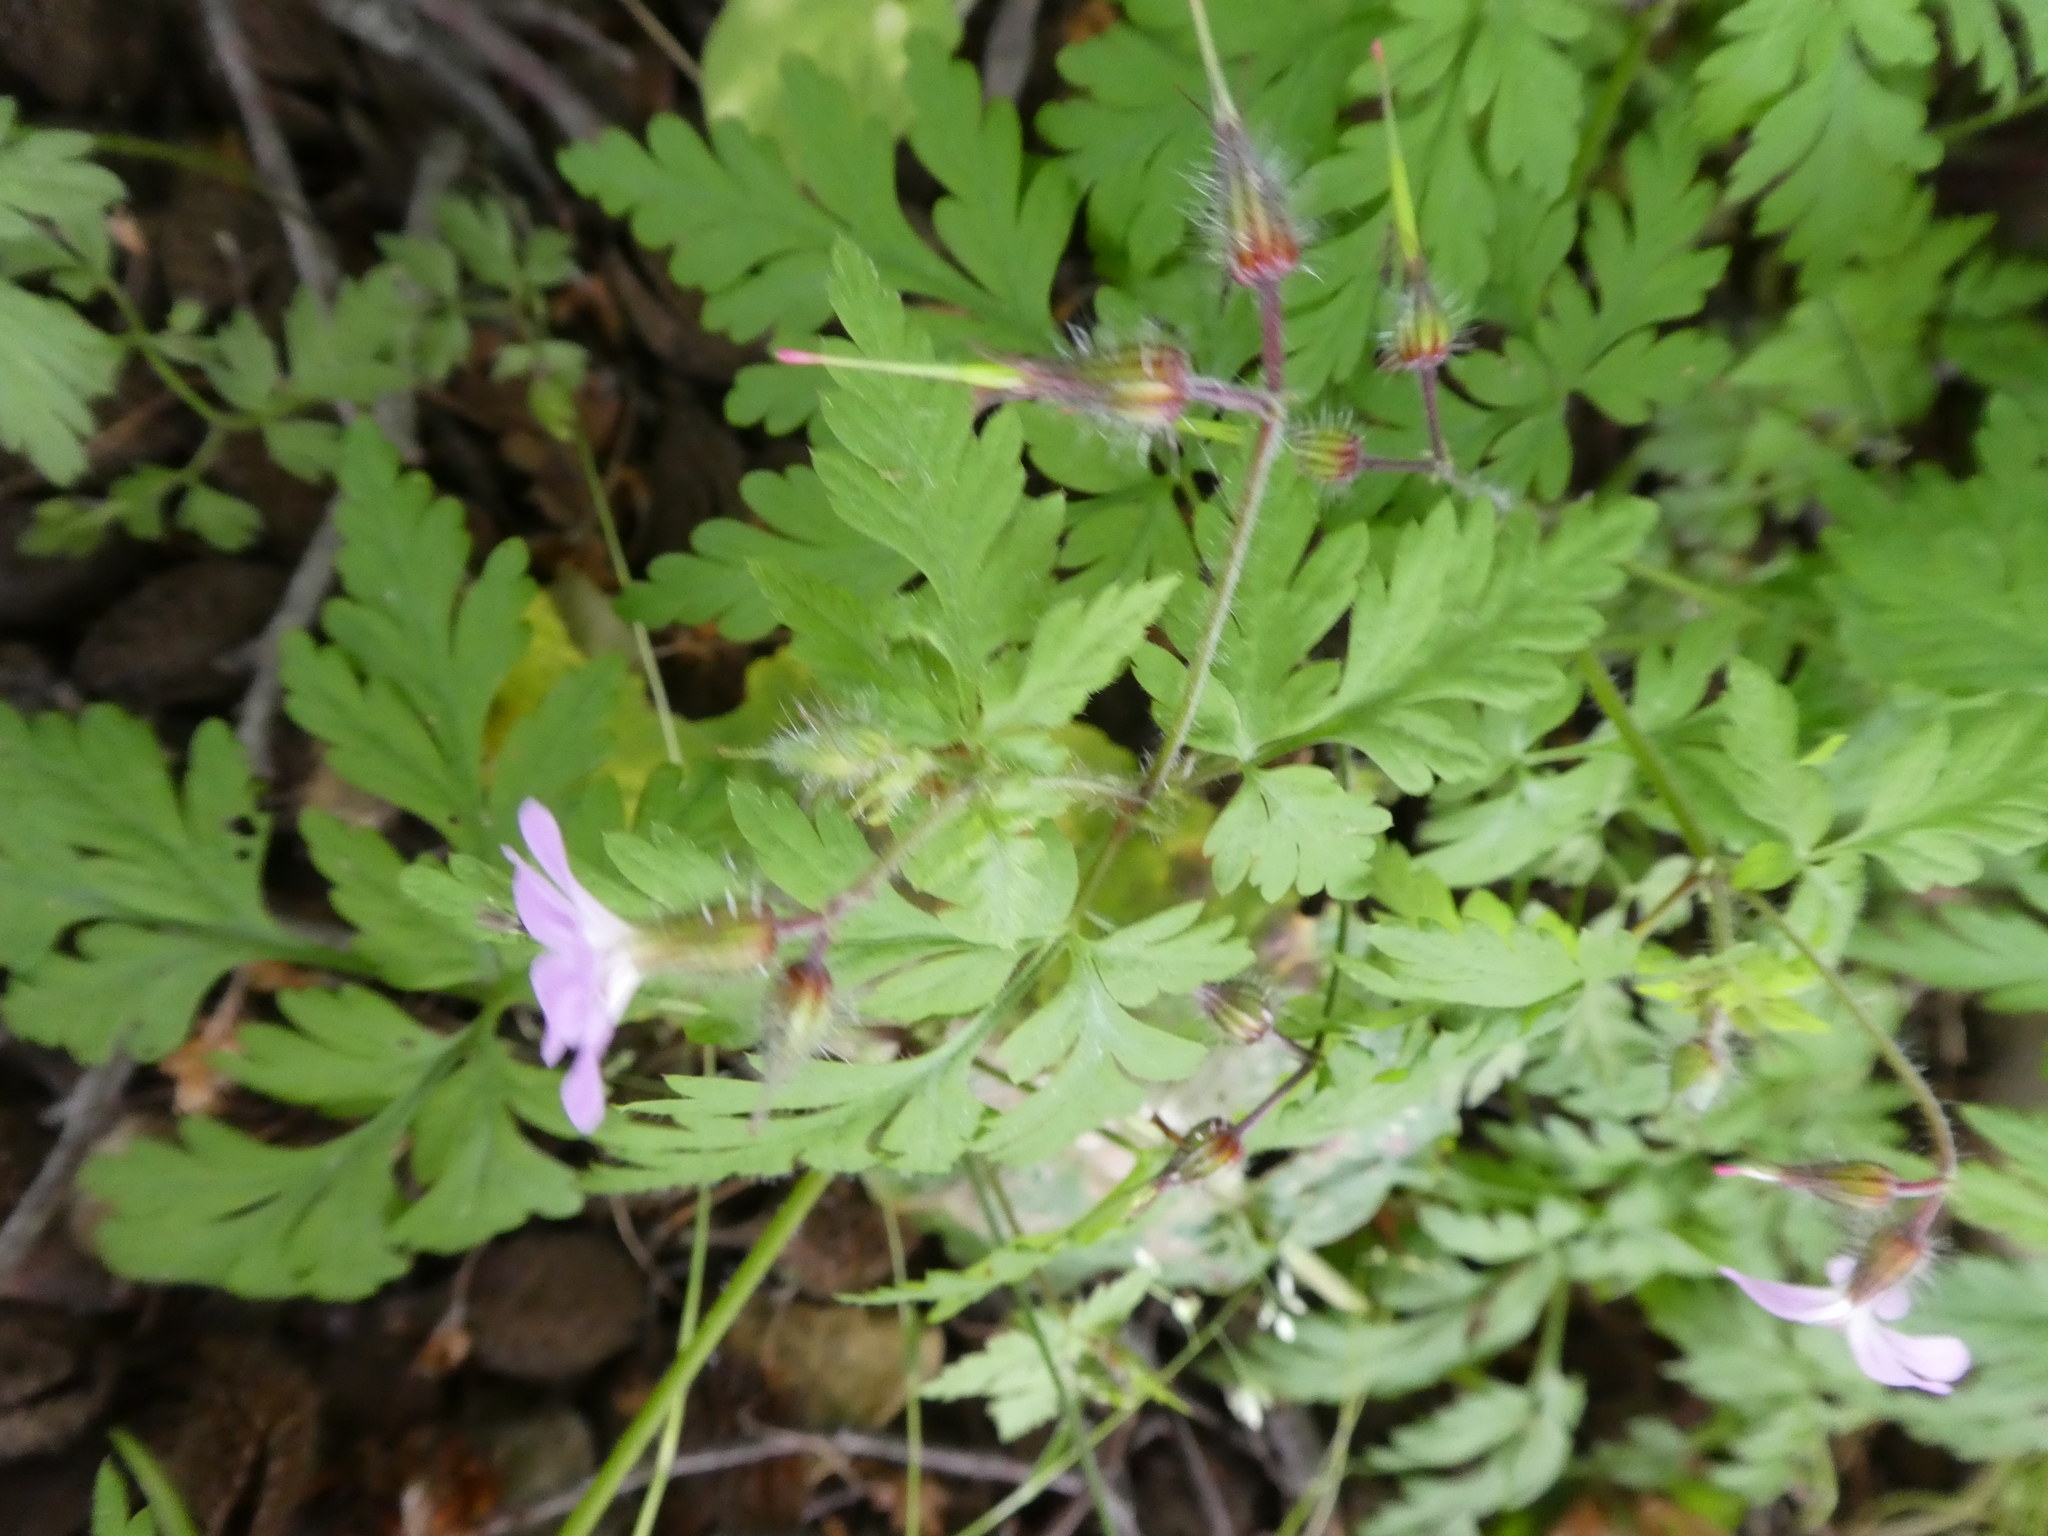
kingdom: Plantae
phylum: Tracheophyta
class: Magnoliopsida
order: Geraniales
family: Geraniaceae
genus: Geranium
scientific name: Geranium robertianum
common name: Herb-robert
